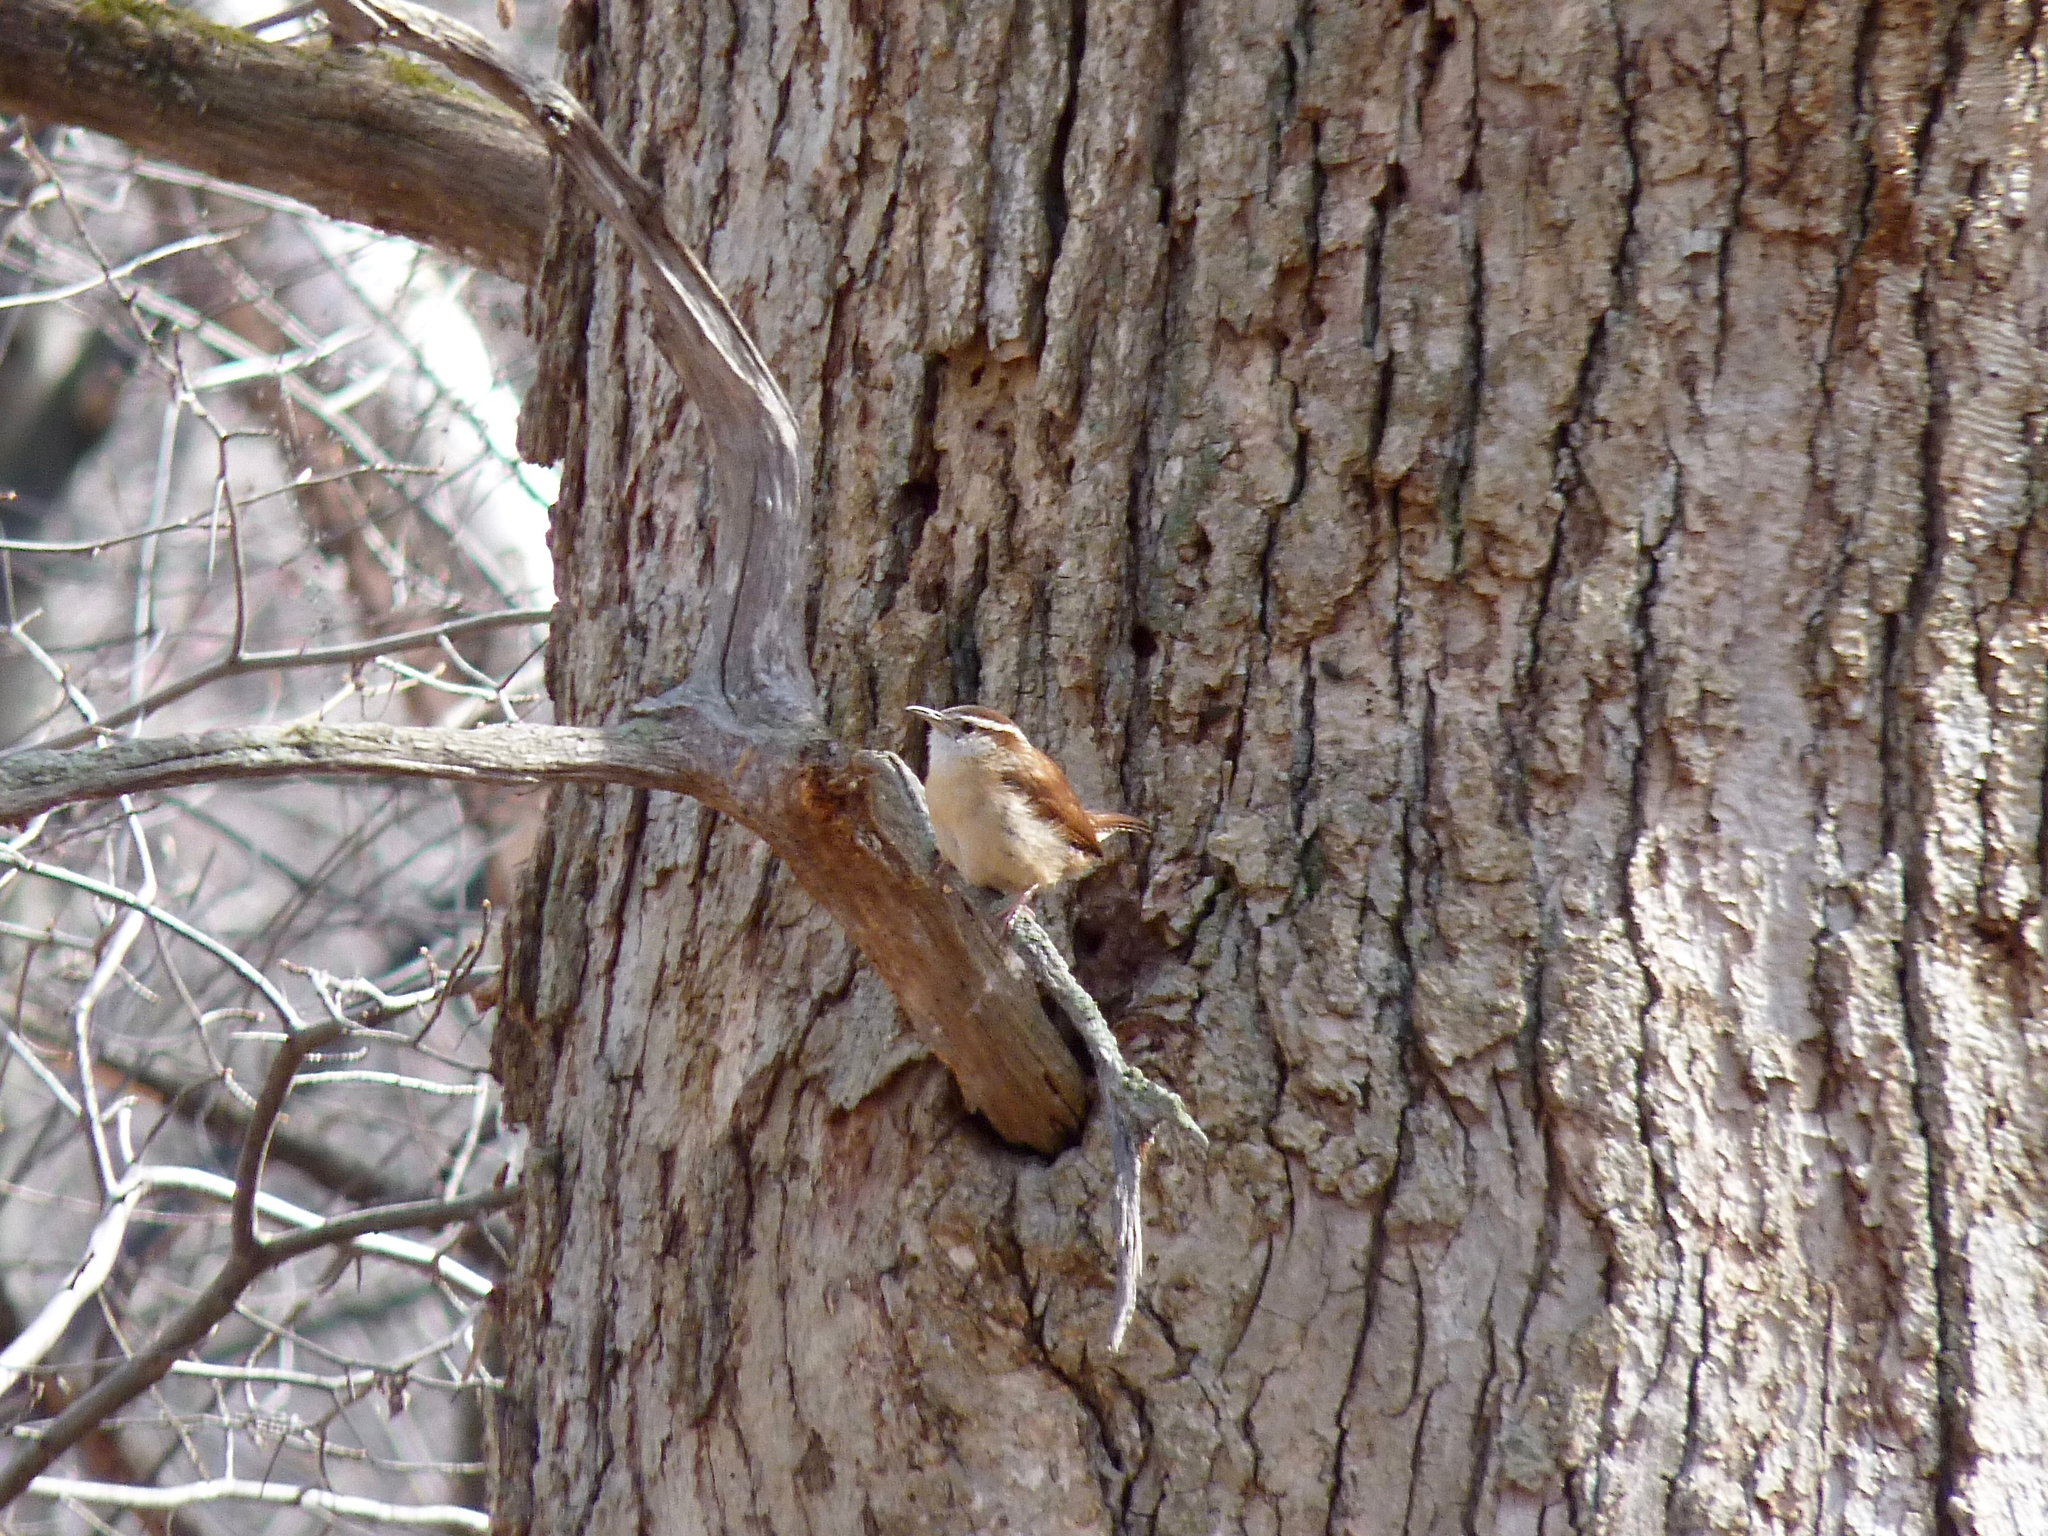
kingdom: Animalia
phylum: Chordata
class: Aves
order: Passeriformes
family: Troglodytidae
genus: Thryothorus
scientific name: Thryothorus ludovicianus
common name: Carolina wren
